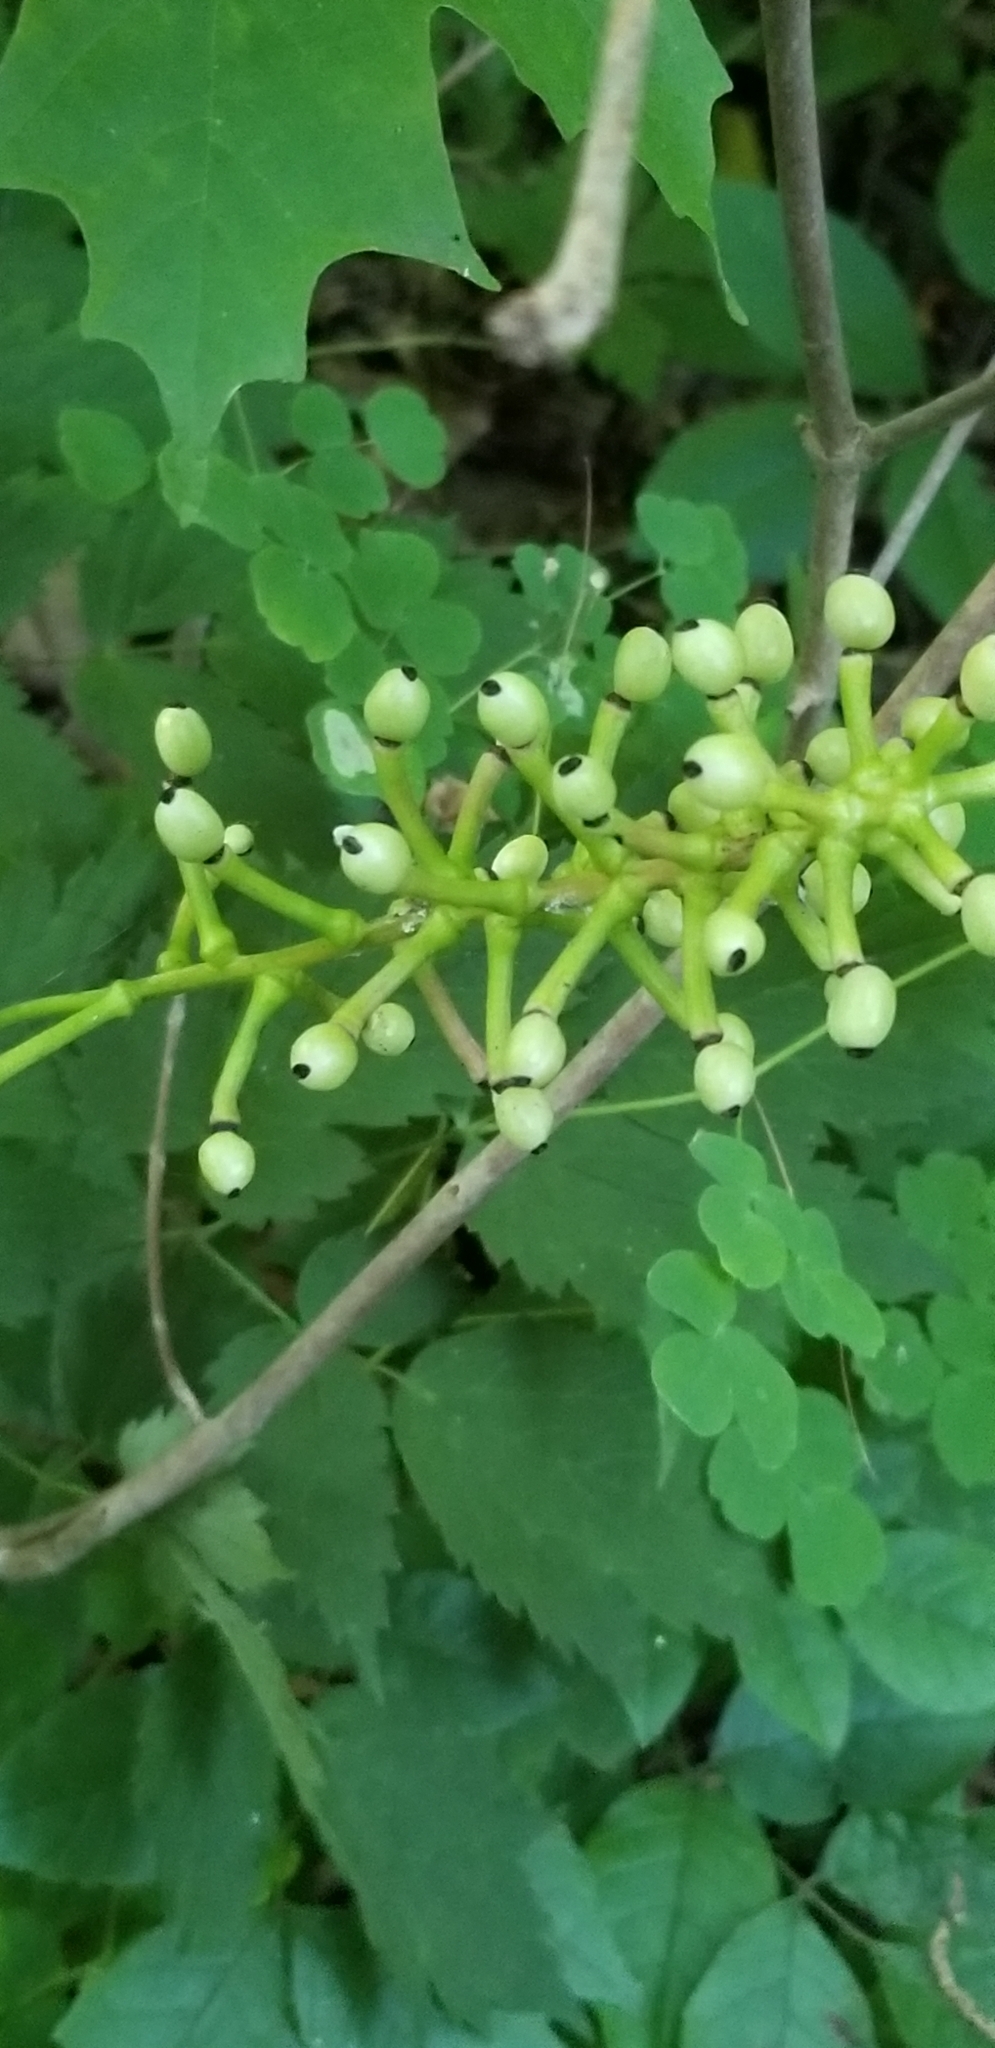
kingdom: Plantae
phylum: Tracheophyta
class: Magnoliopsida
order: Ranunculales
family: Ranunculaceae
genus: Actaea
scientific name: Actaea pachypoda
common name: Doll's-eyes
